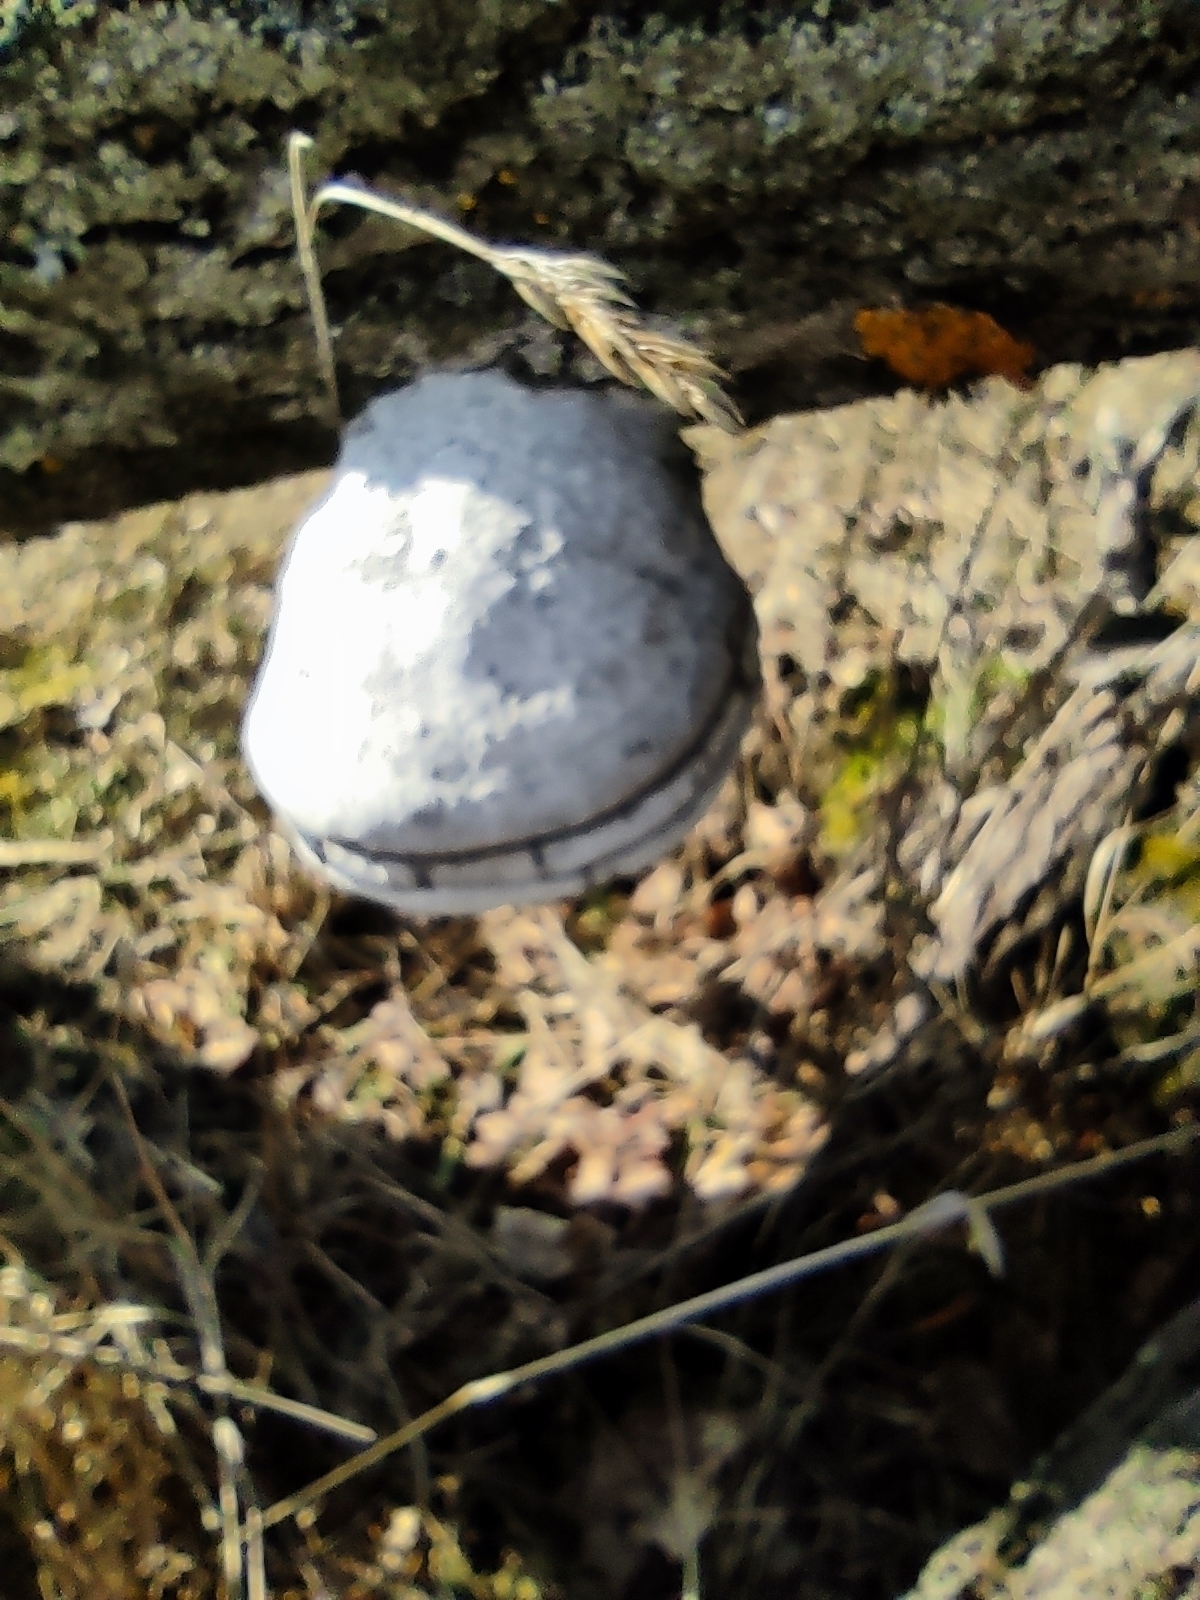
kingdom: Fungi
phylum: Basidiomycota
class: Agaricomycetes
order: Polyporales
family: Polyporaceae
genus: Fomes
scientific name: Fomes fomentarius
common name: Hoof fungus
